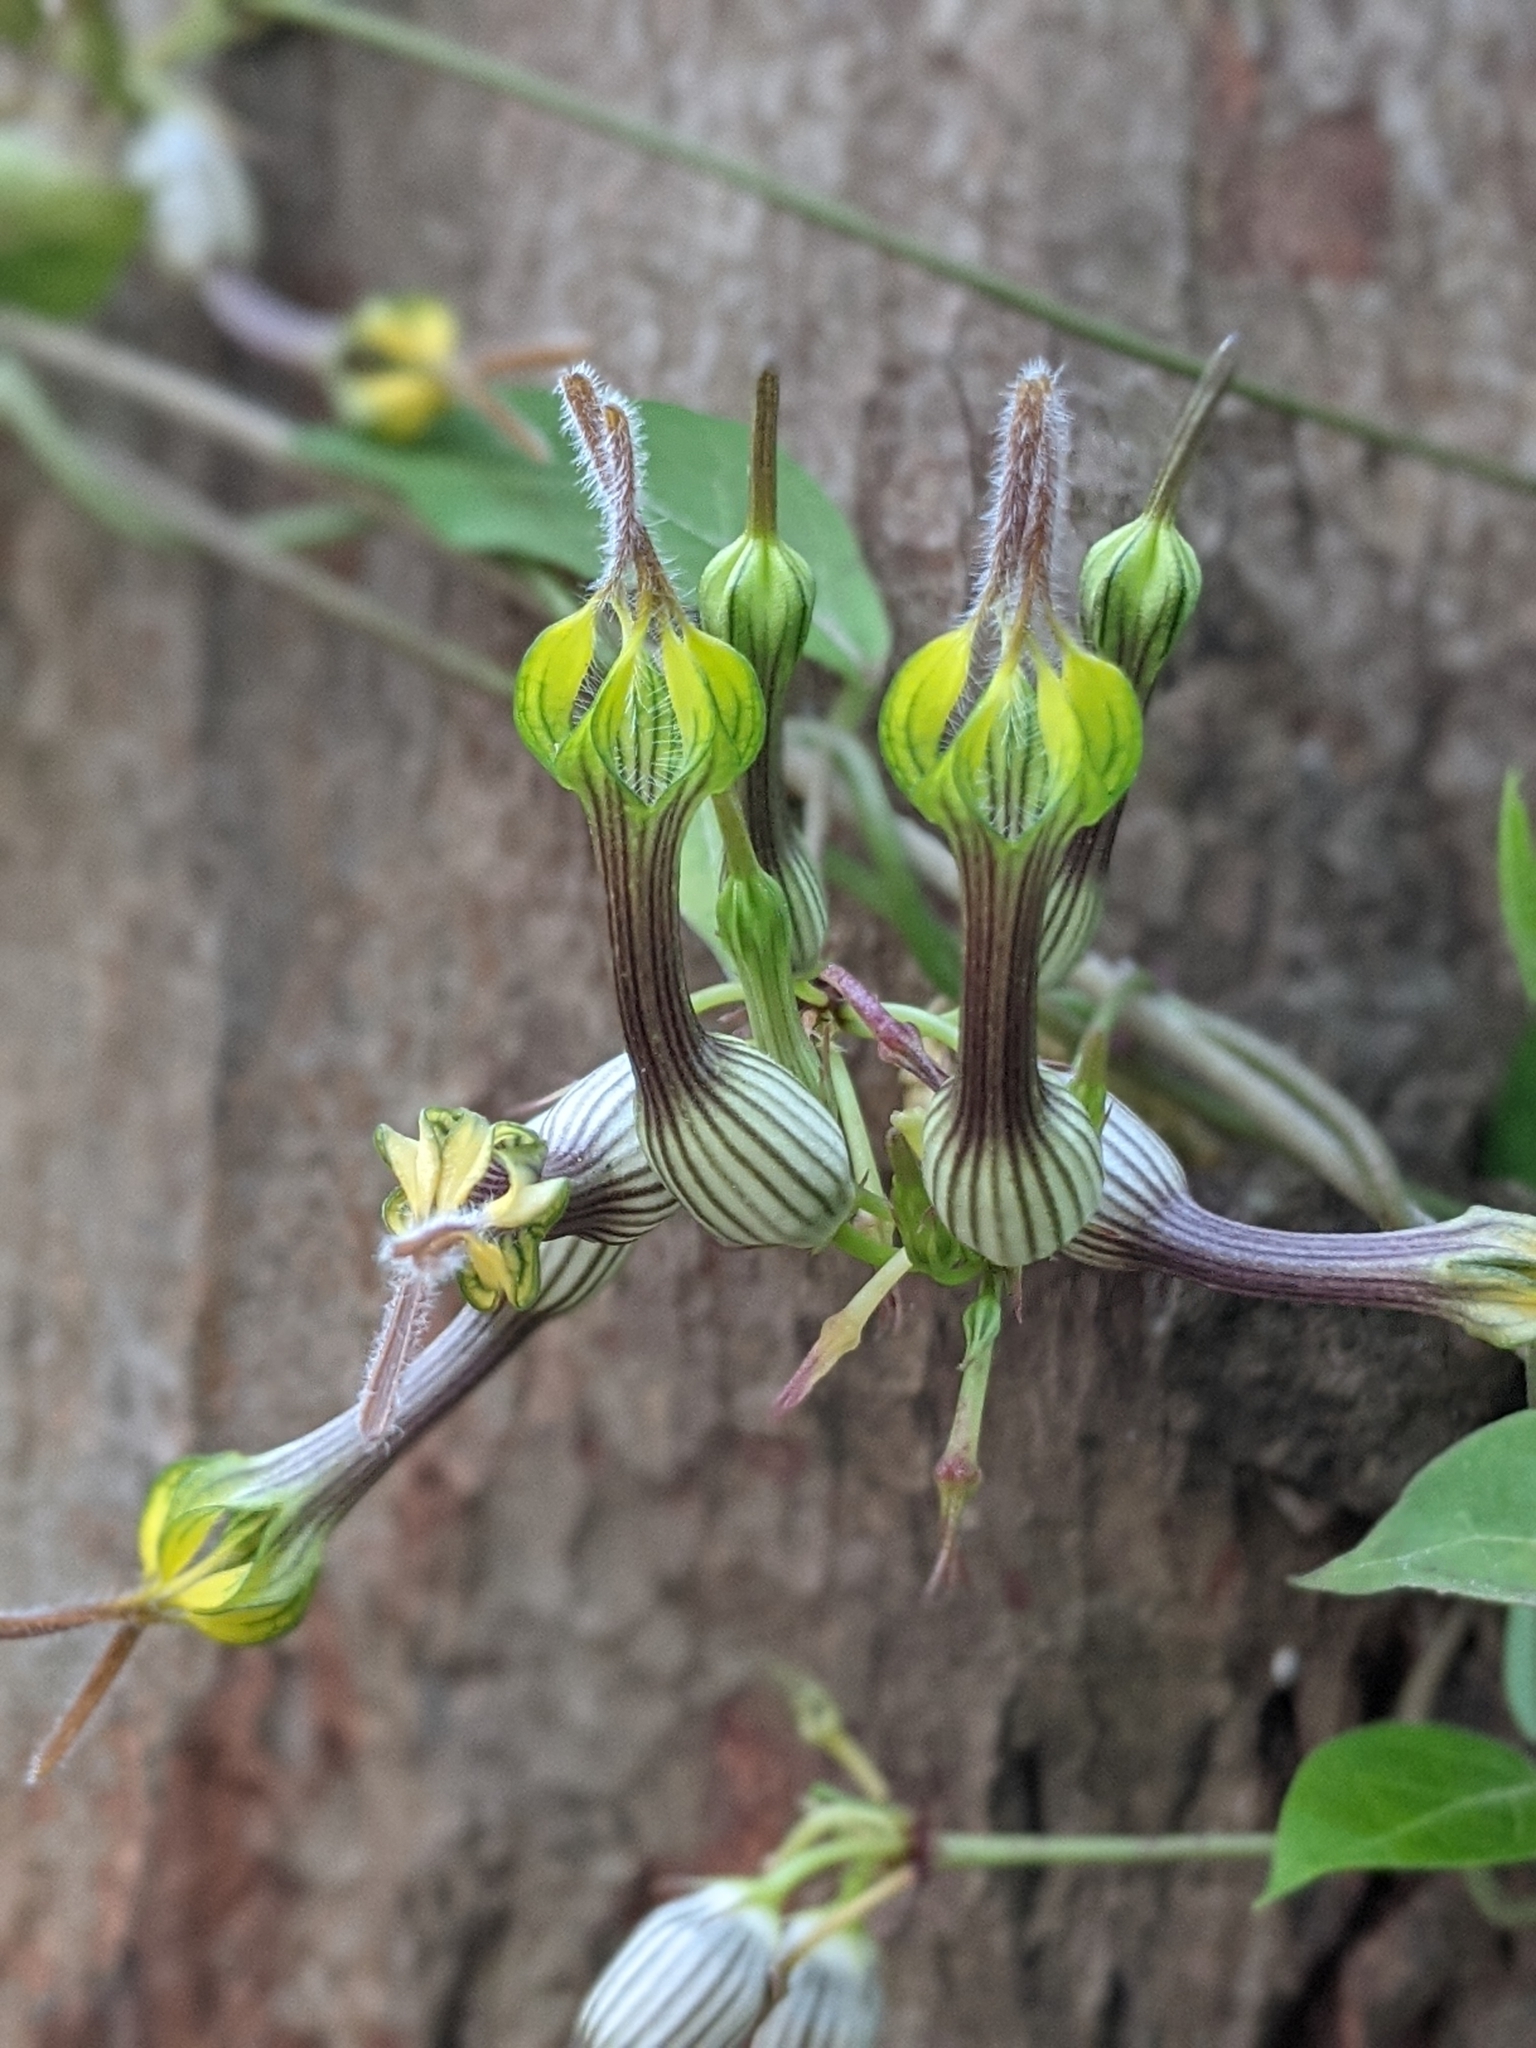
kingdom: Plantae
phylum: Tracheophyta
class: Magnoliopsida
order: Gentianales
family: Apocynaceae
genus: Ceropegia
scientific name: Ceropegia candelabrum
